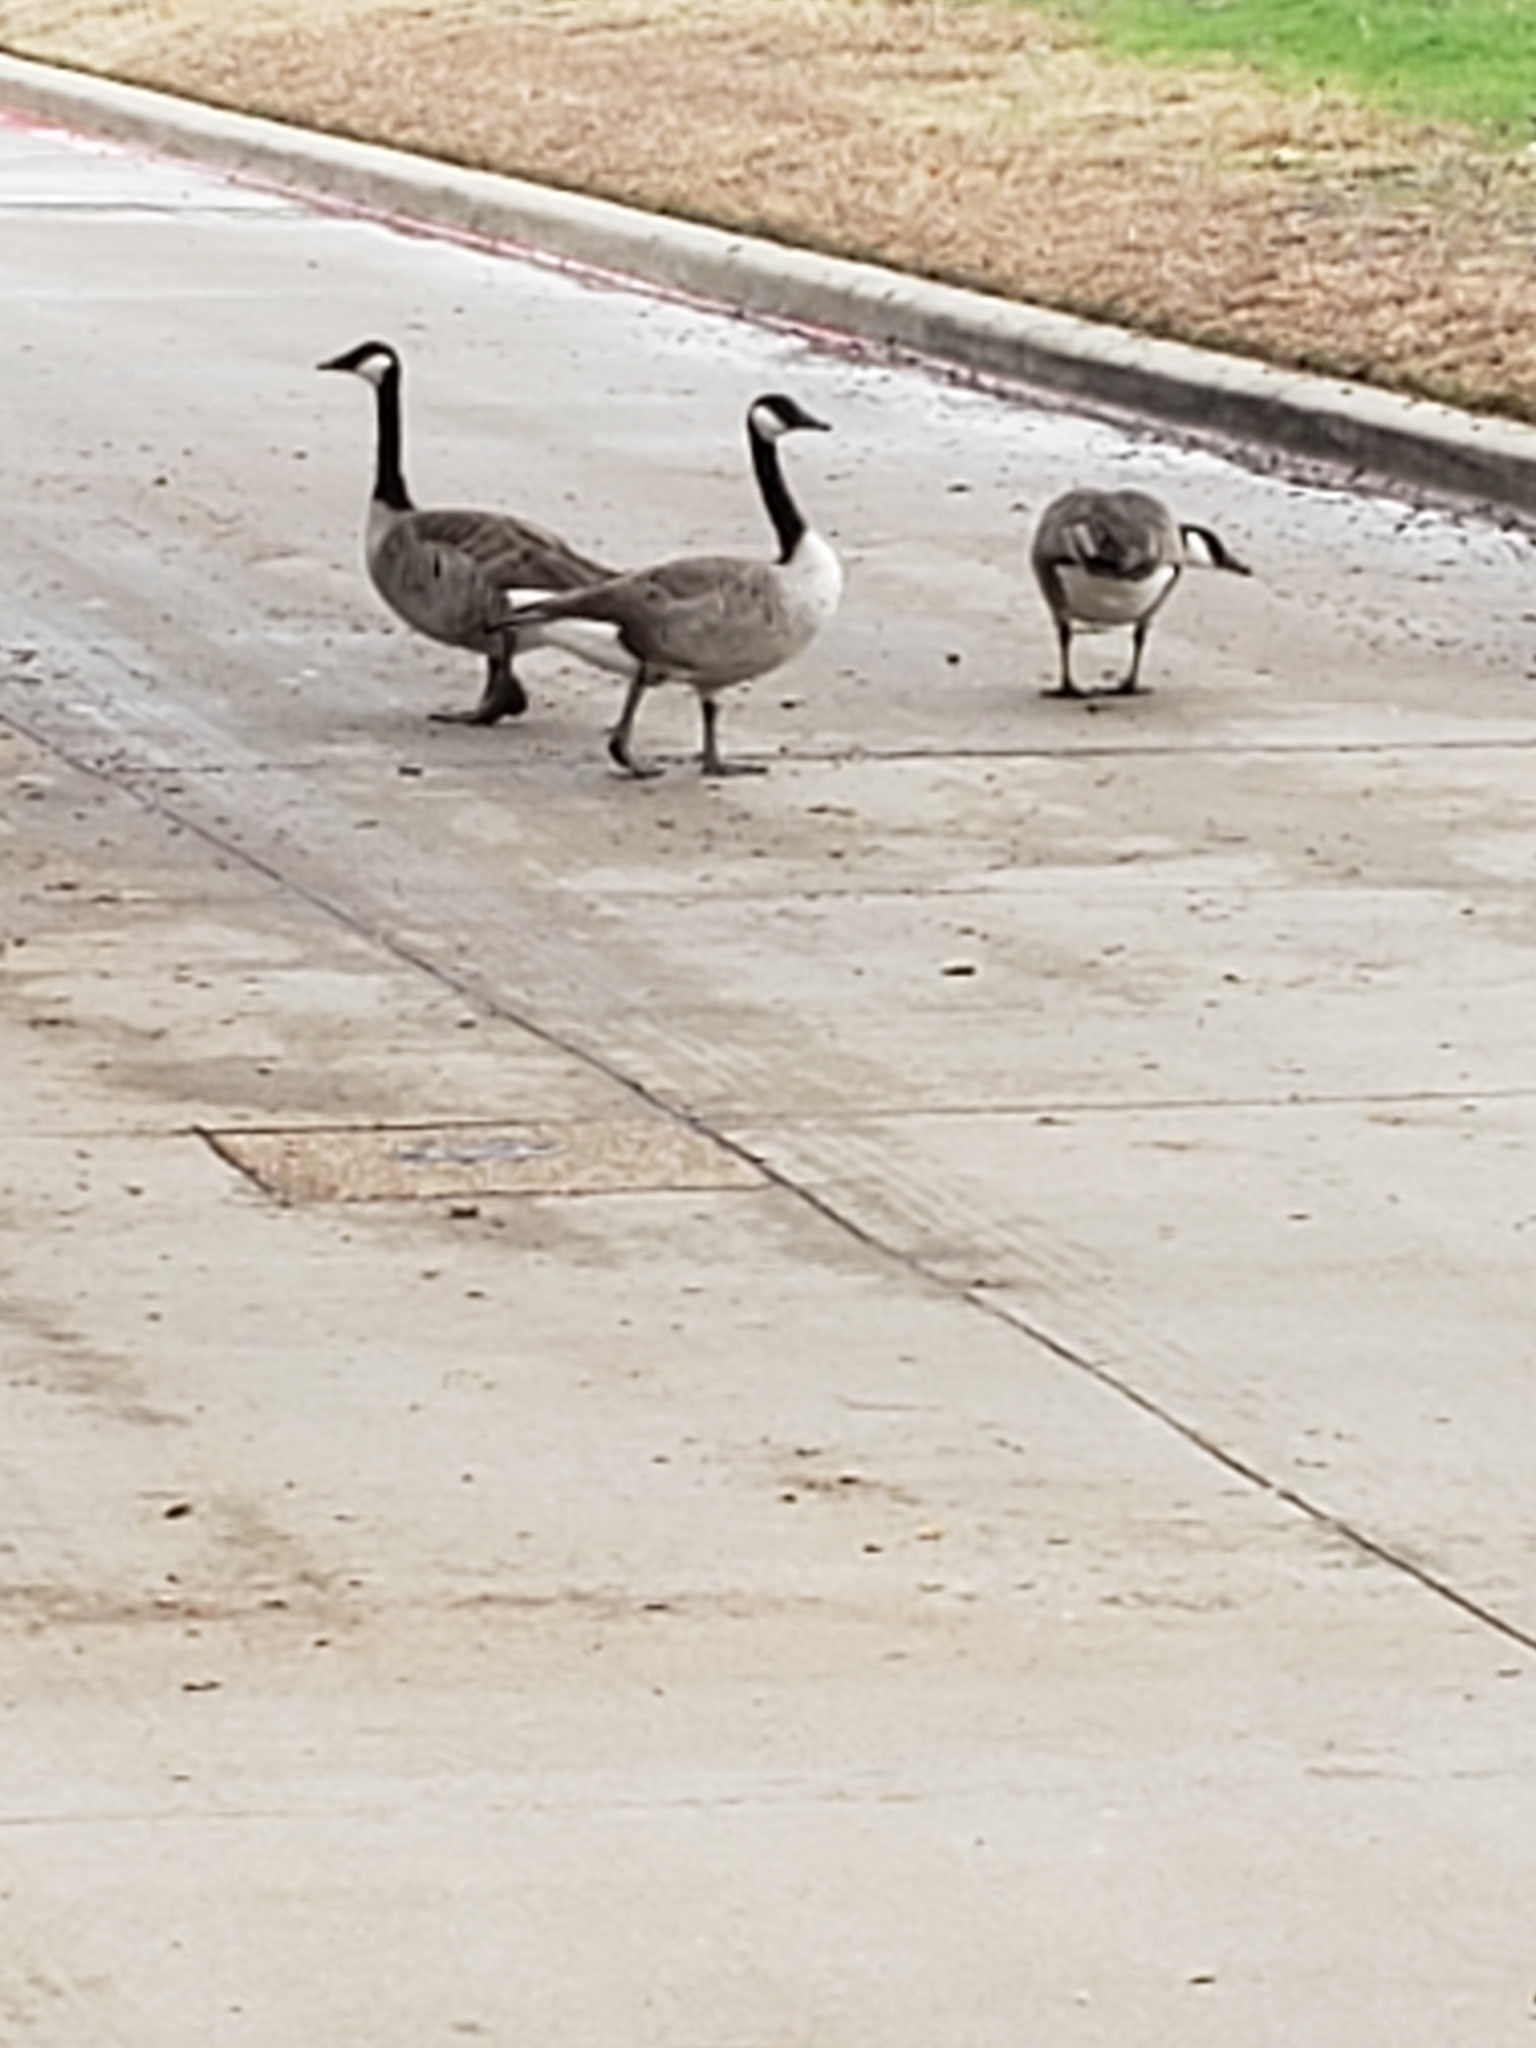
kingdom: Animalia
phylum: Chordata
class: Aves
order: Anseriformes
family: Anatidae
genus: Branta
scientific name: Branta canadensis
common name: Canada goose
